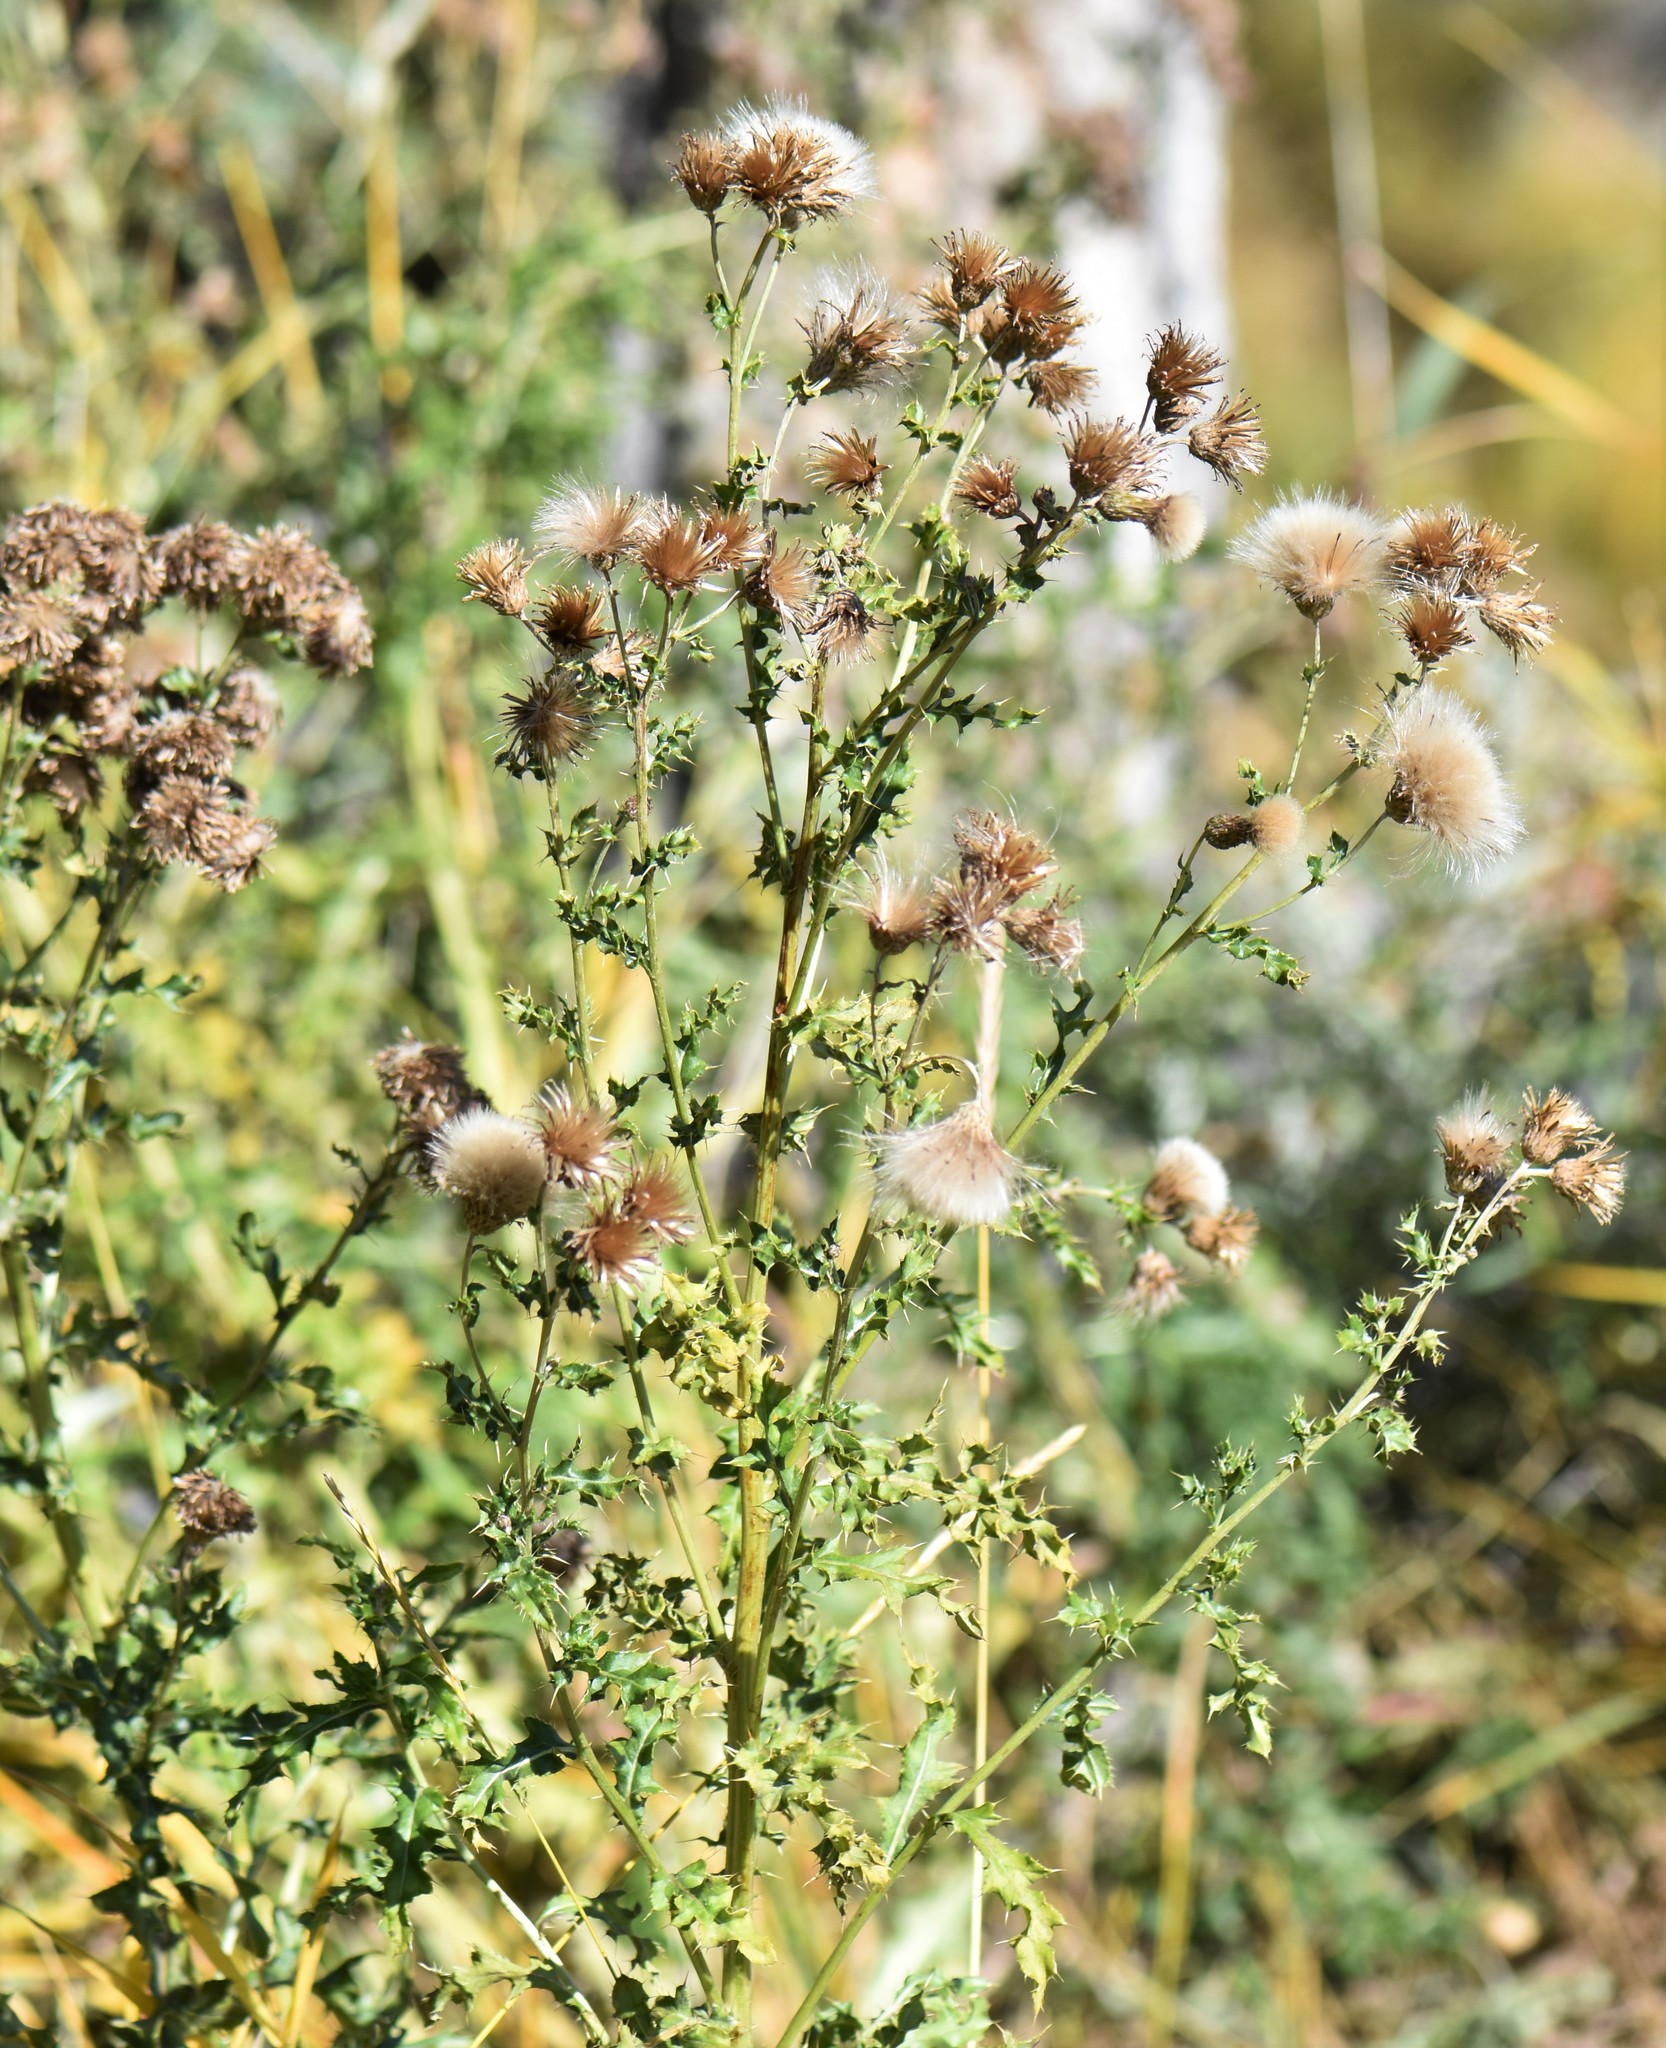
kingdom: Plantae
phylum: Tracheophyta
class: Magnoliopsida
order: Asterales
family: Asteraceae
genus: Cirsium
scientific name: Cirsium arvense
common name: Creeping thistle
